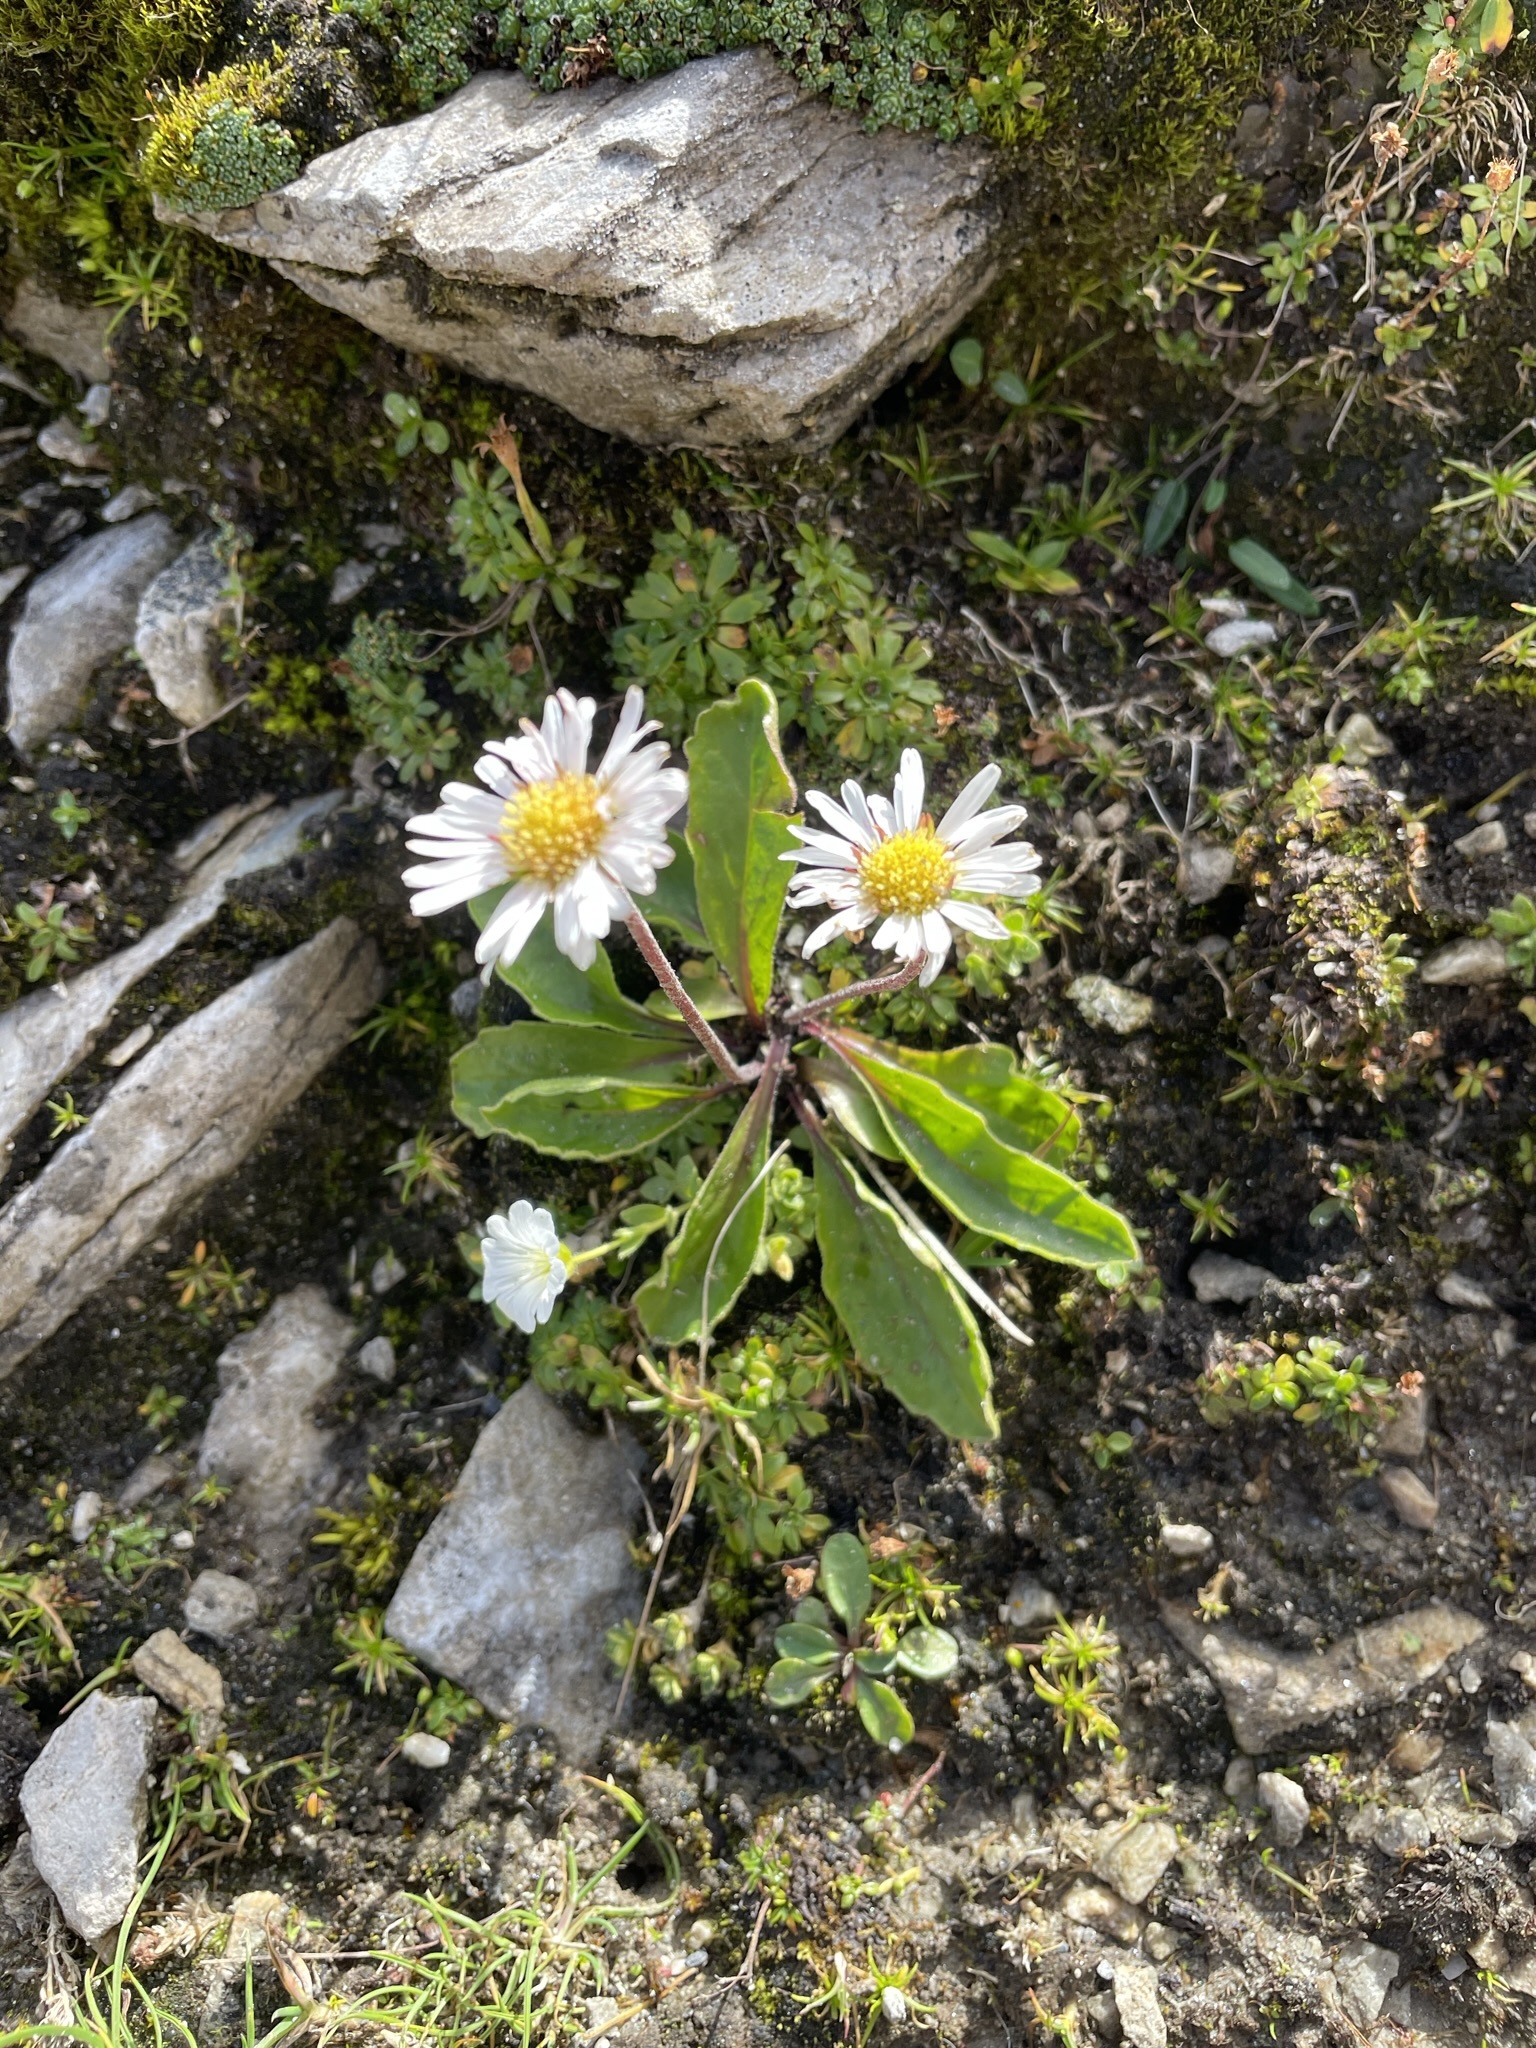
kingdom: Plantae
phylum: Tracheophyta
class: Magnoliopsida
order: Asterales
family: Asteraceae
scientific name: Asteraceae
